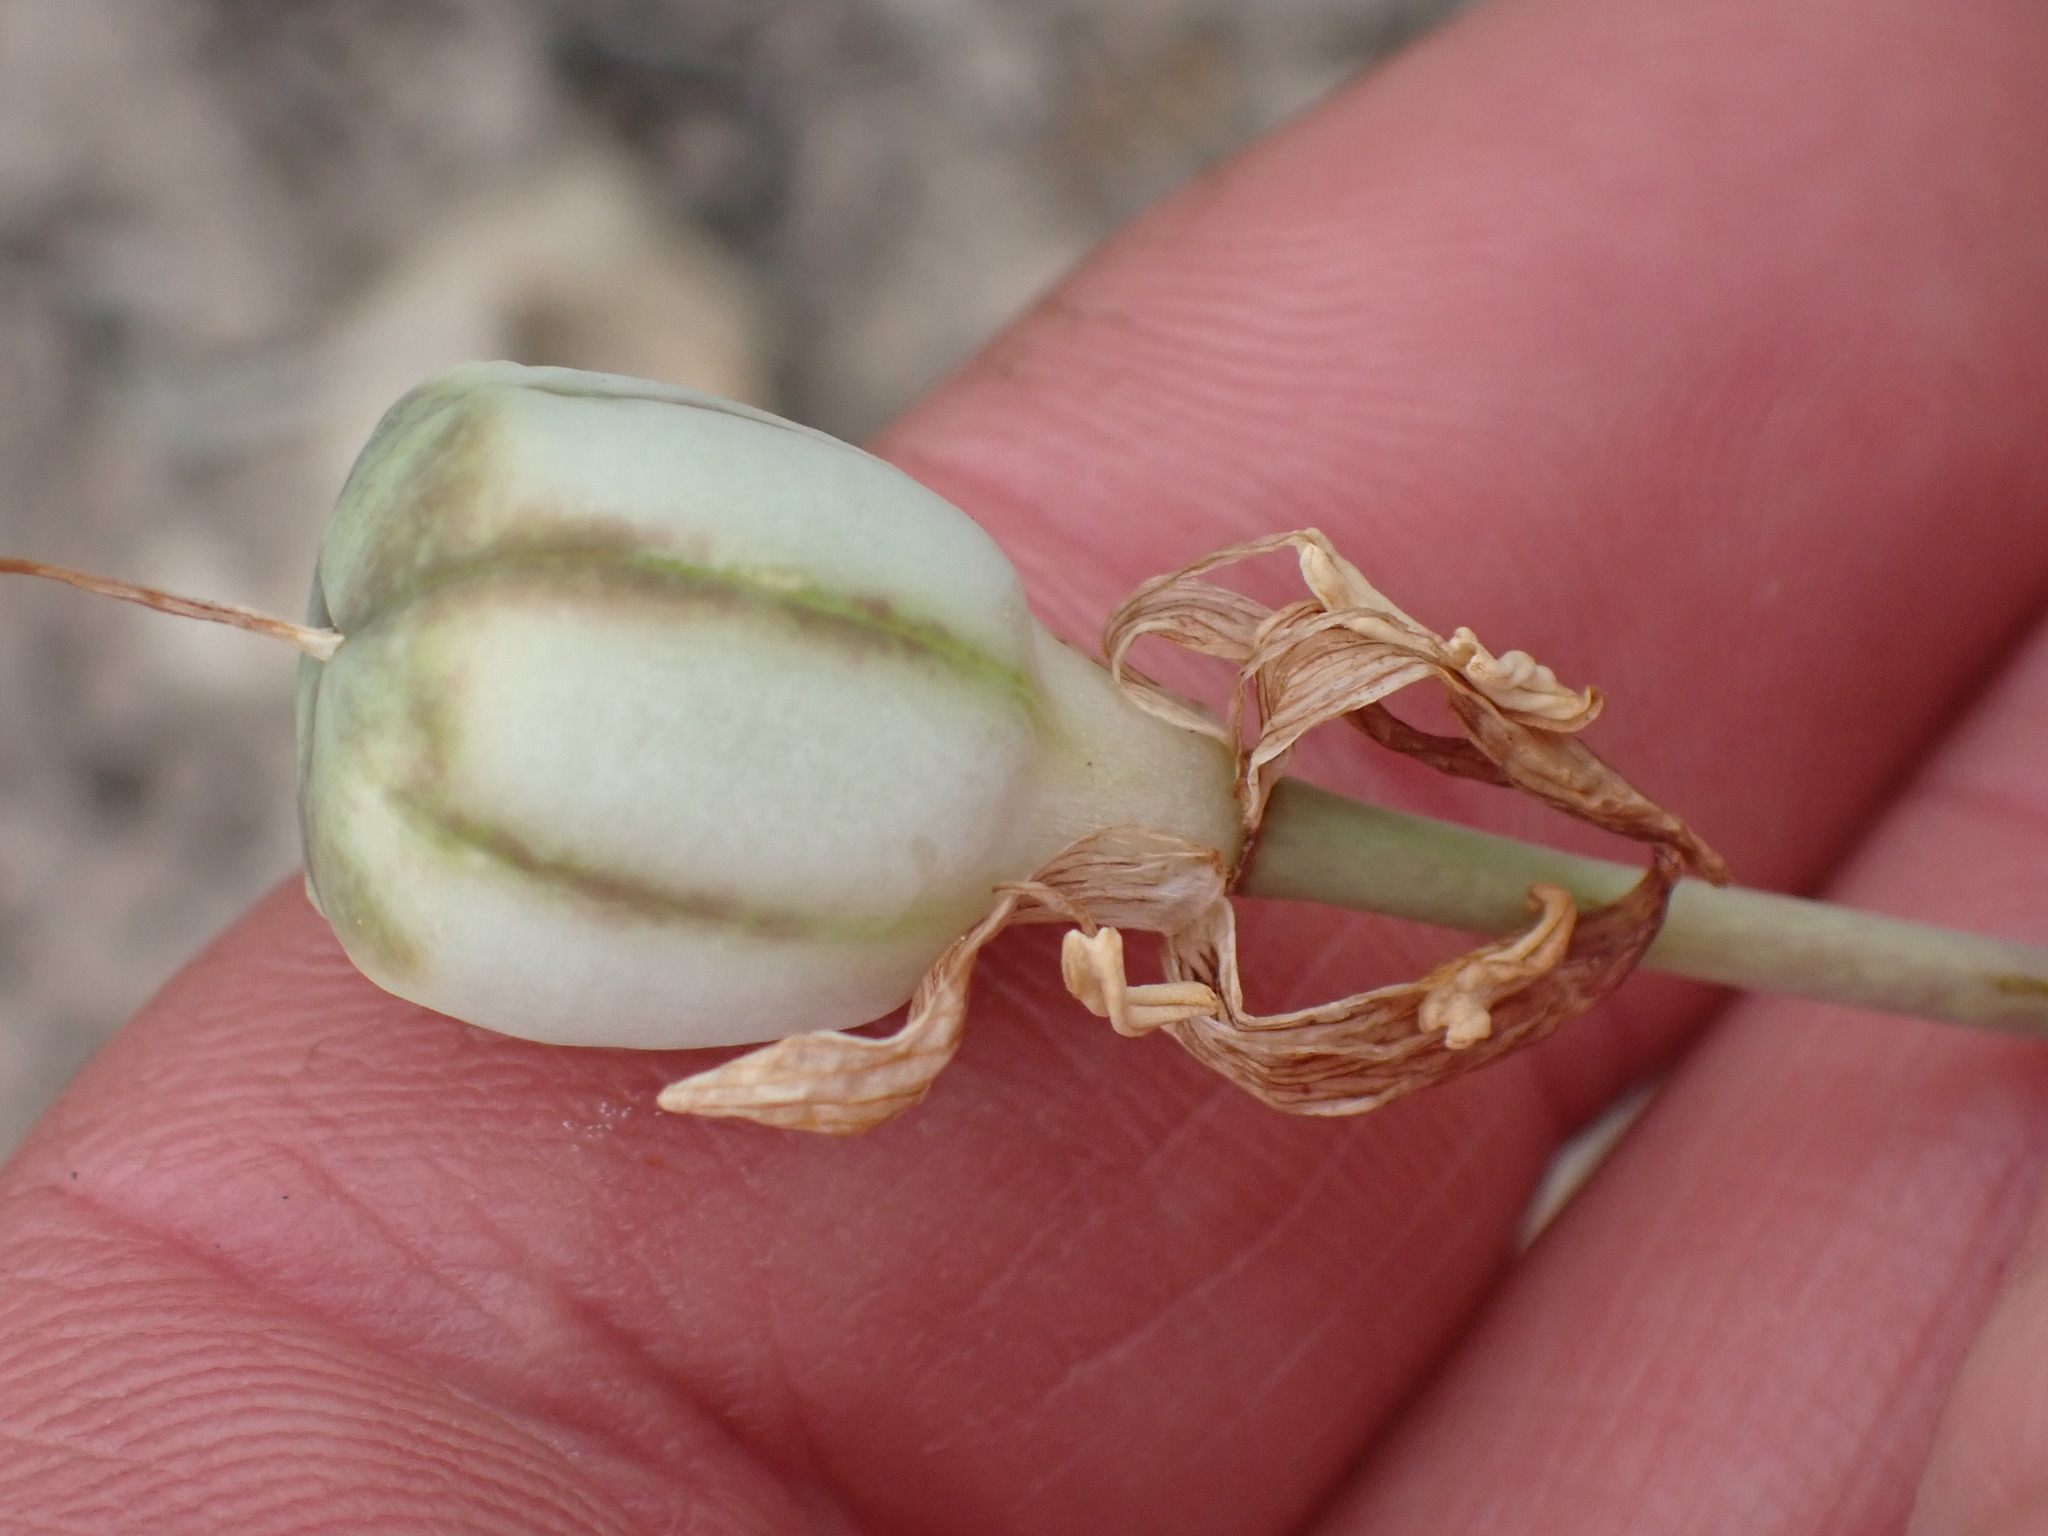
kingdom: Plantae
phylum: Tracheophyta
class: Liliopsida
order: Liliales
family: Liliaceae
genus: Fritillaria
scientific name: Fritillaria pudica
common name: Yellow fritillary
